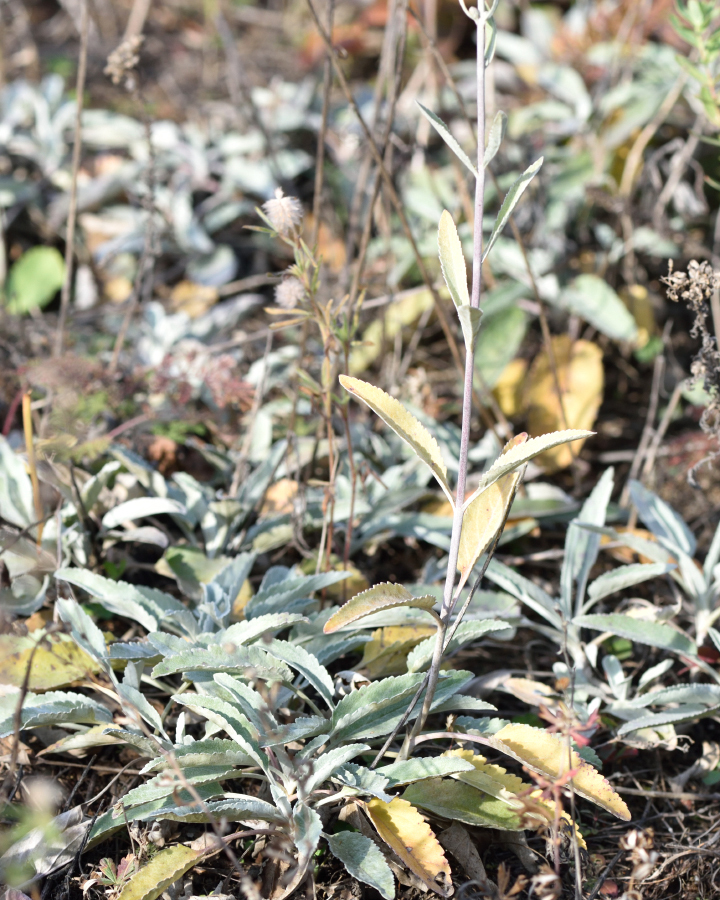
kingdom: Plantae
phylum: Tracheophyta
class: Magnoliopsida
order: Lamiales
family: Plantaginaceae
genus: Veronica
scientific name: Veronica incana
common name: Silver speedwell
